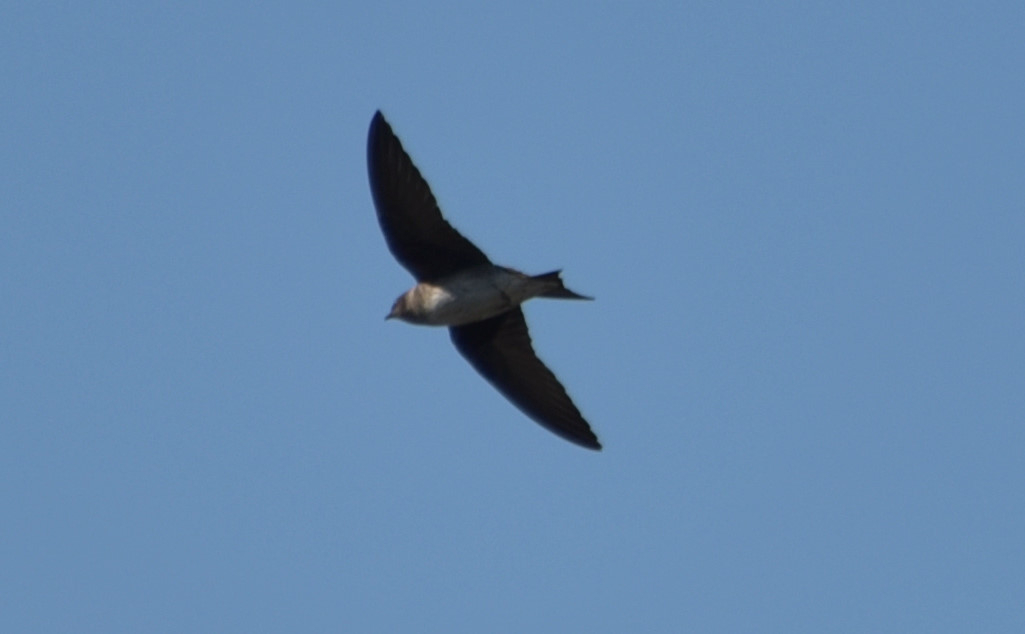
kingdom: Animalia
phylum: Chordata
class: Aves
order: Passeriformes
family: Hirundinidae
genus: Hirundo
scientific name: Hirundo rustica
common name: Barn swallow
